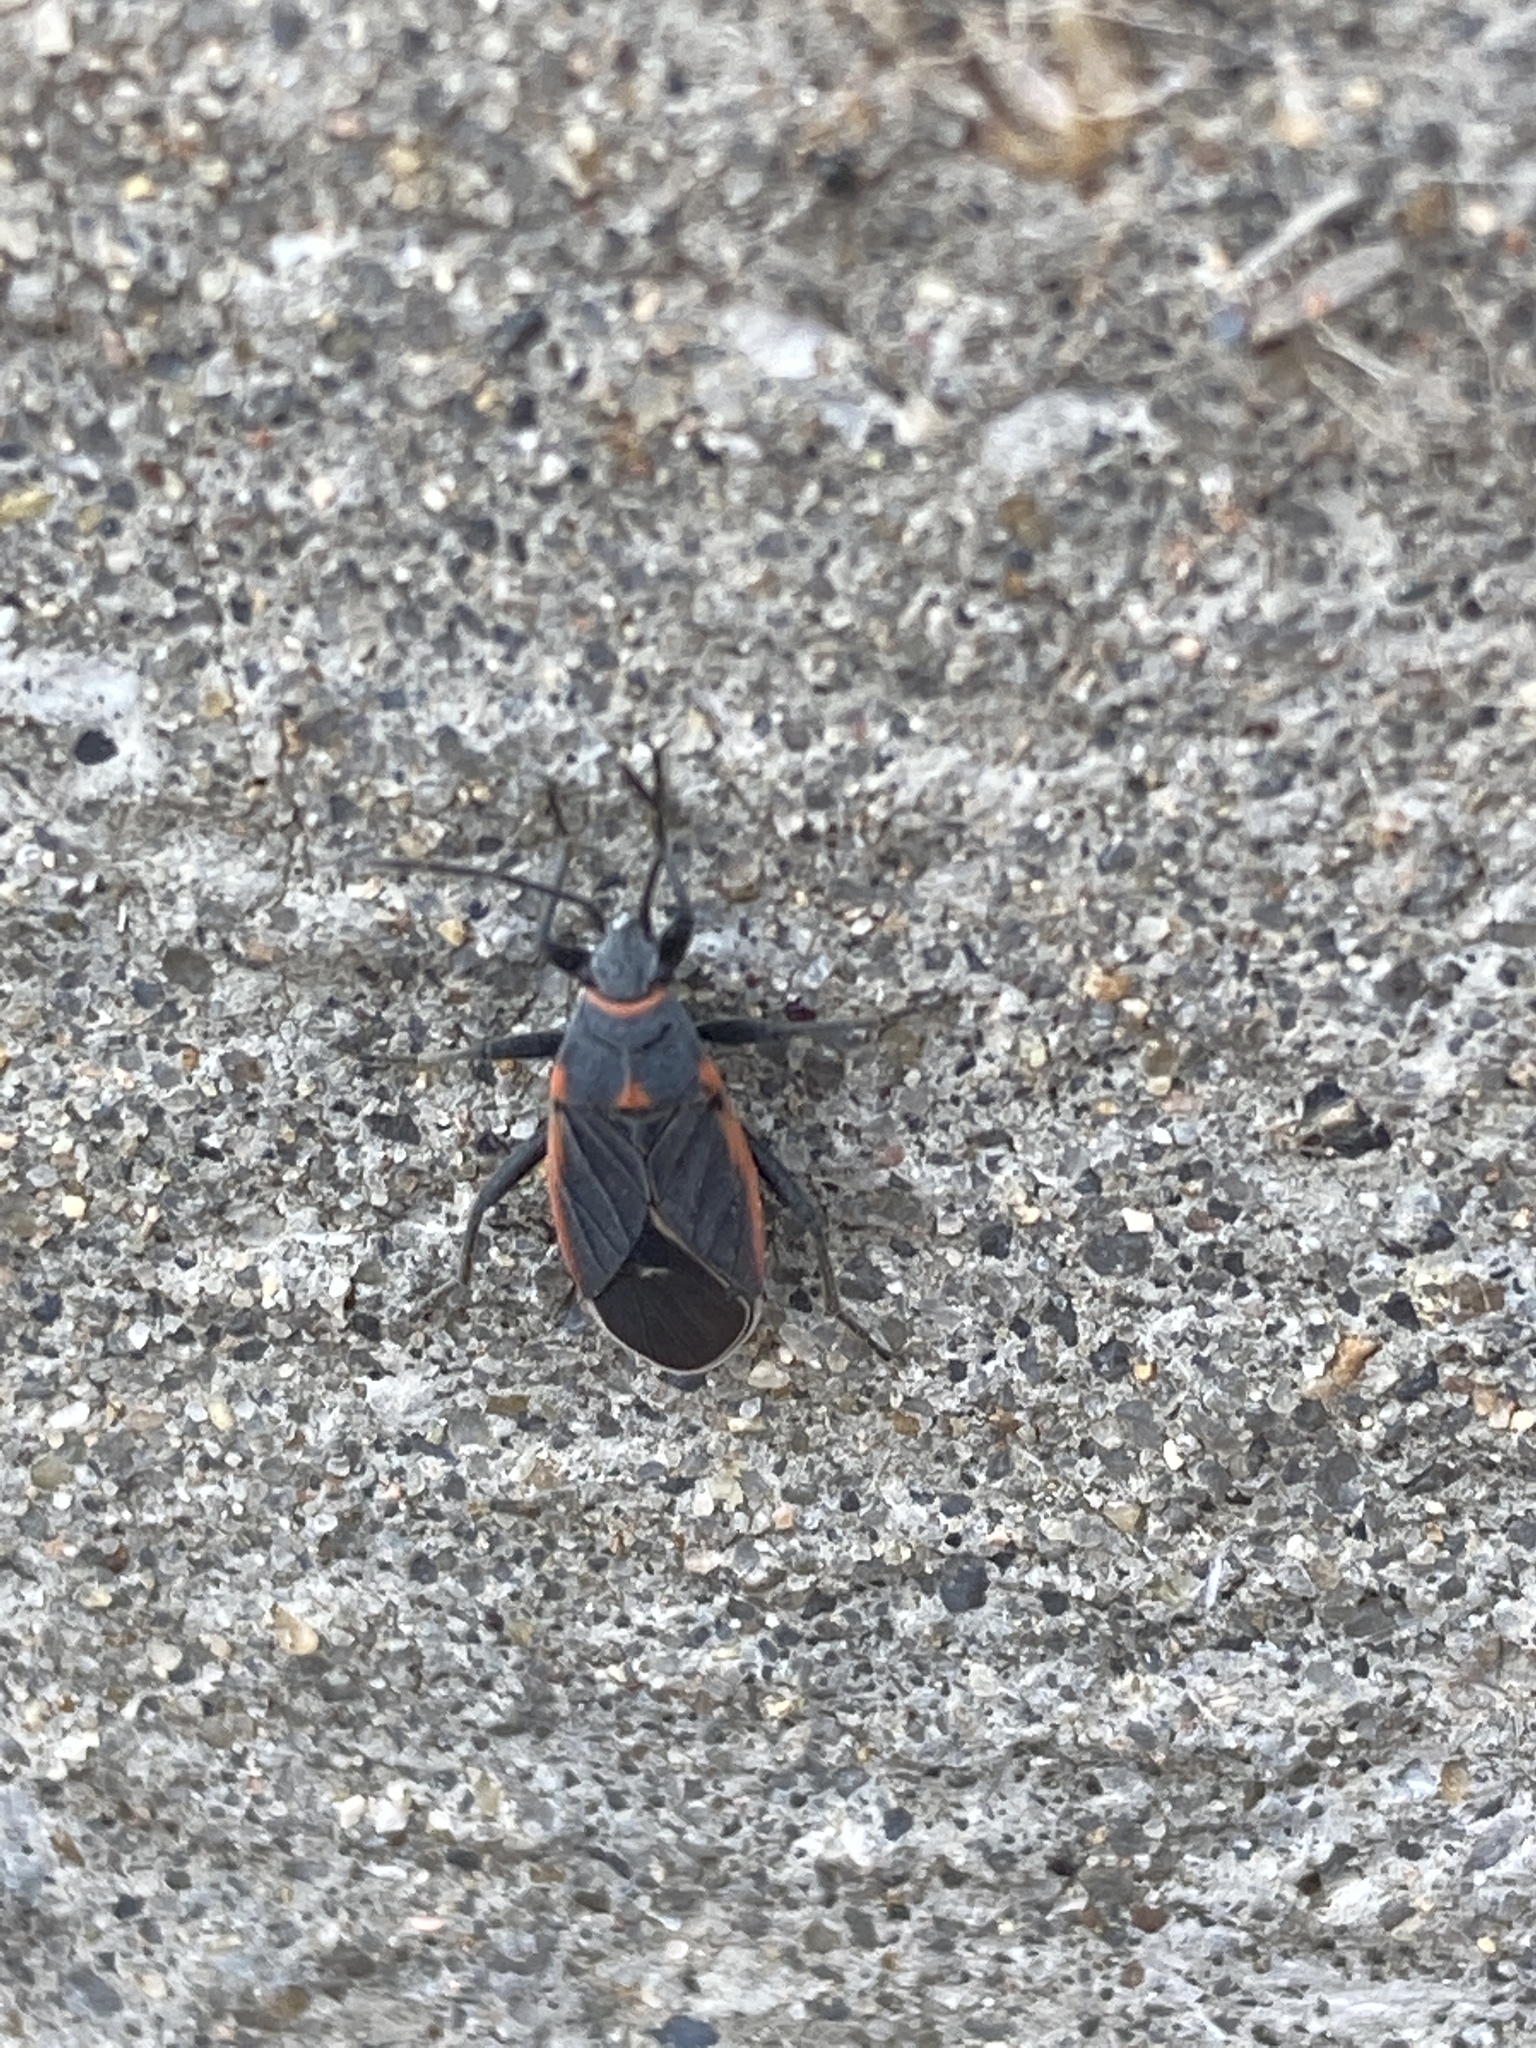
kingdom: Animalia
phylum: Arthropoda
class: Insecta
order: Hemiptera
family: Lygaeidae
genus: Melacoryphus
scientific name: Melacoryphus lateralis
